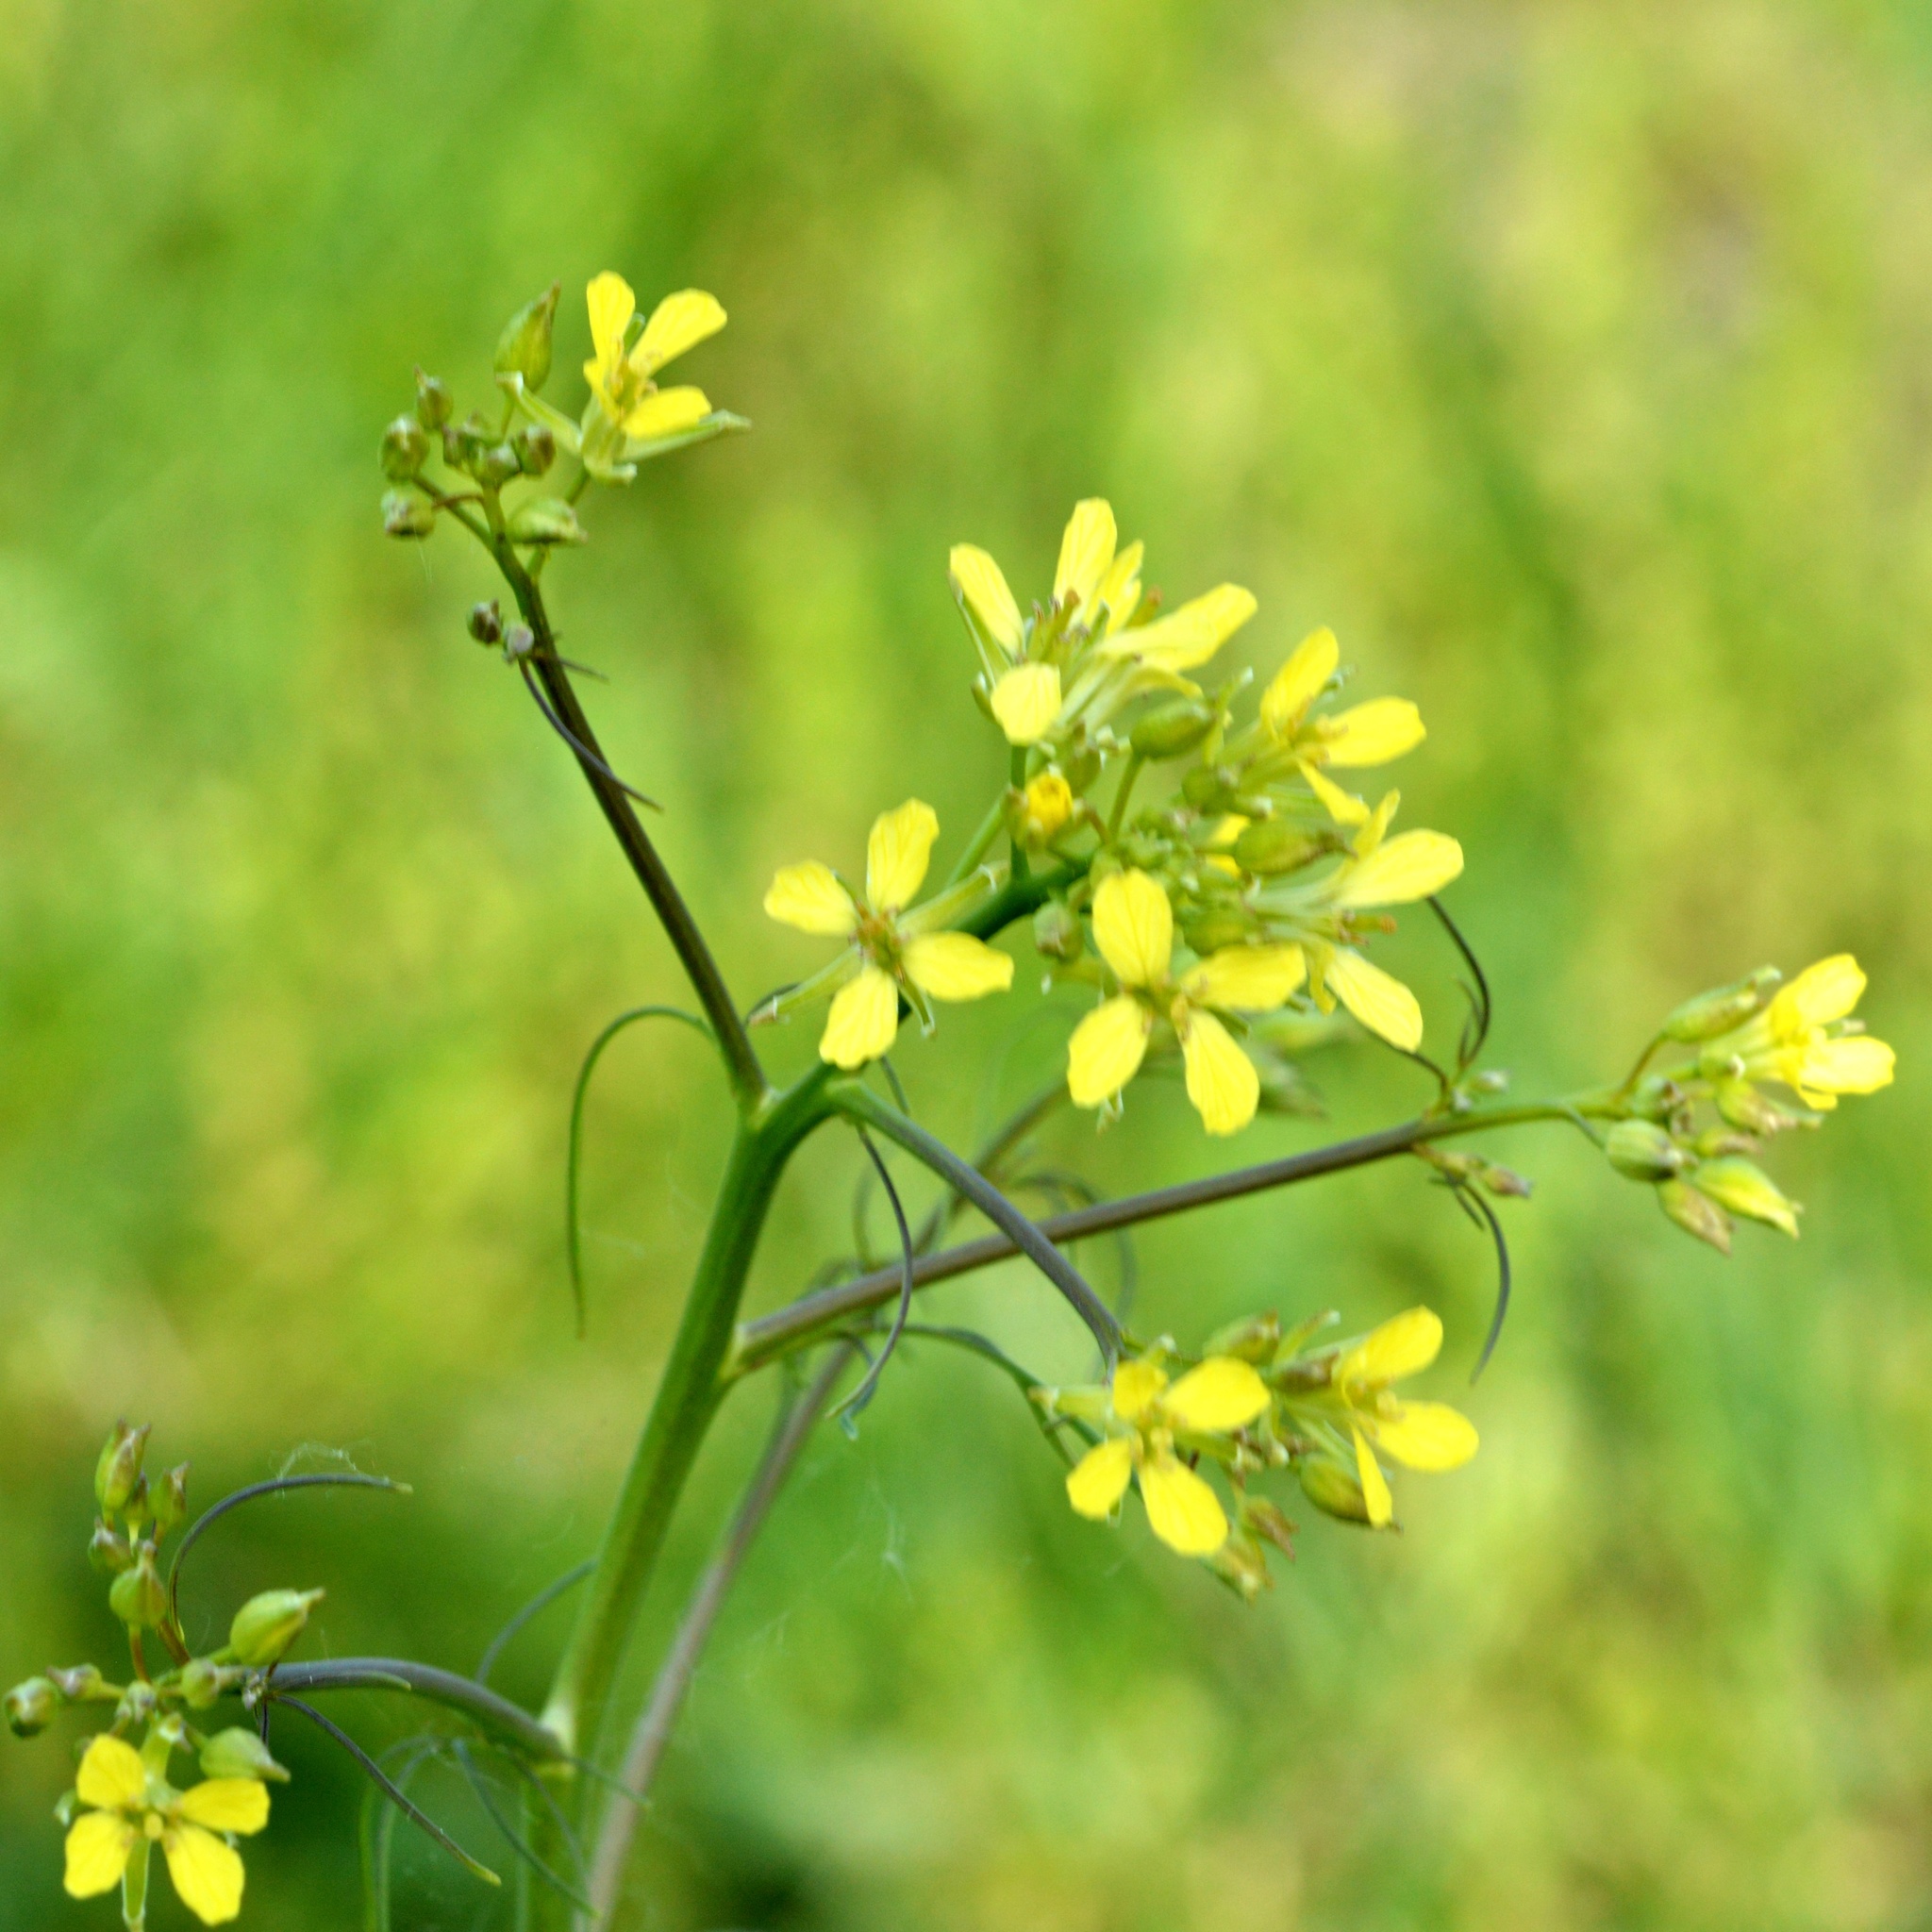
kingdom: Plantae
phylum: Tracheophyta
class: Magnoliopsida
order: Brassicales
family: Brassicaceae
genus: Sisymbrium
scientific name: Sisymbrium altissimum
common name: Tall rocket
